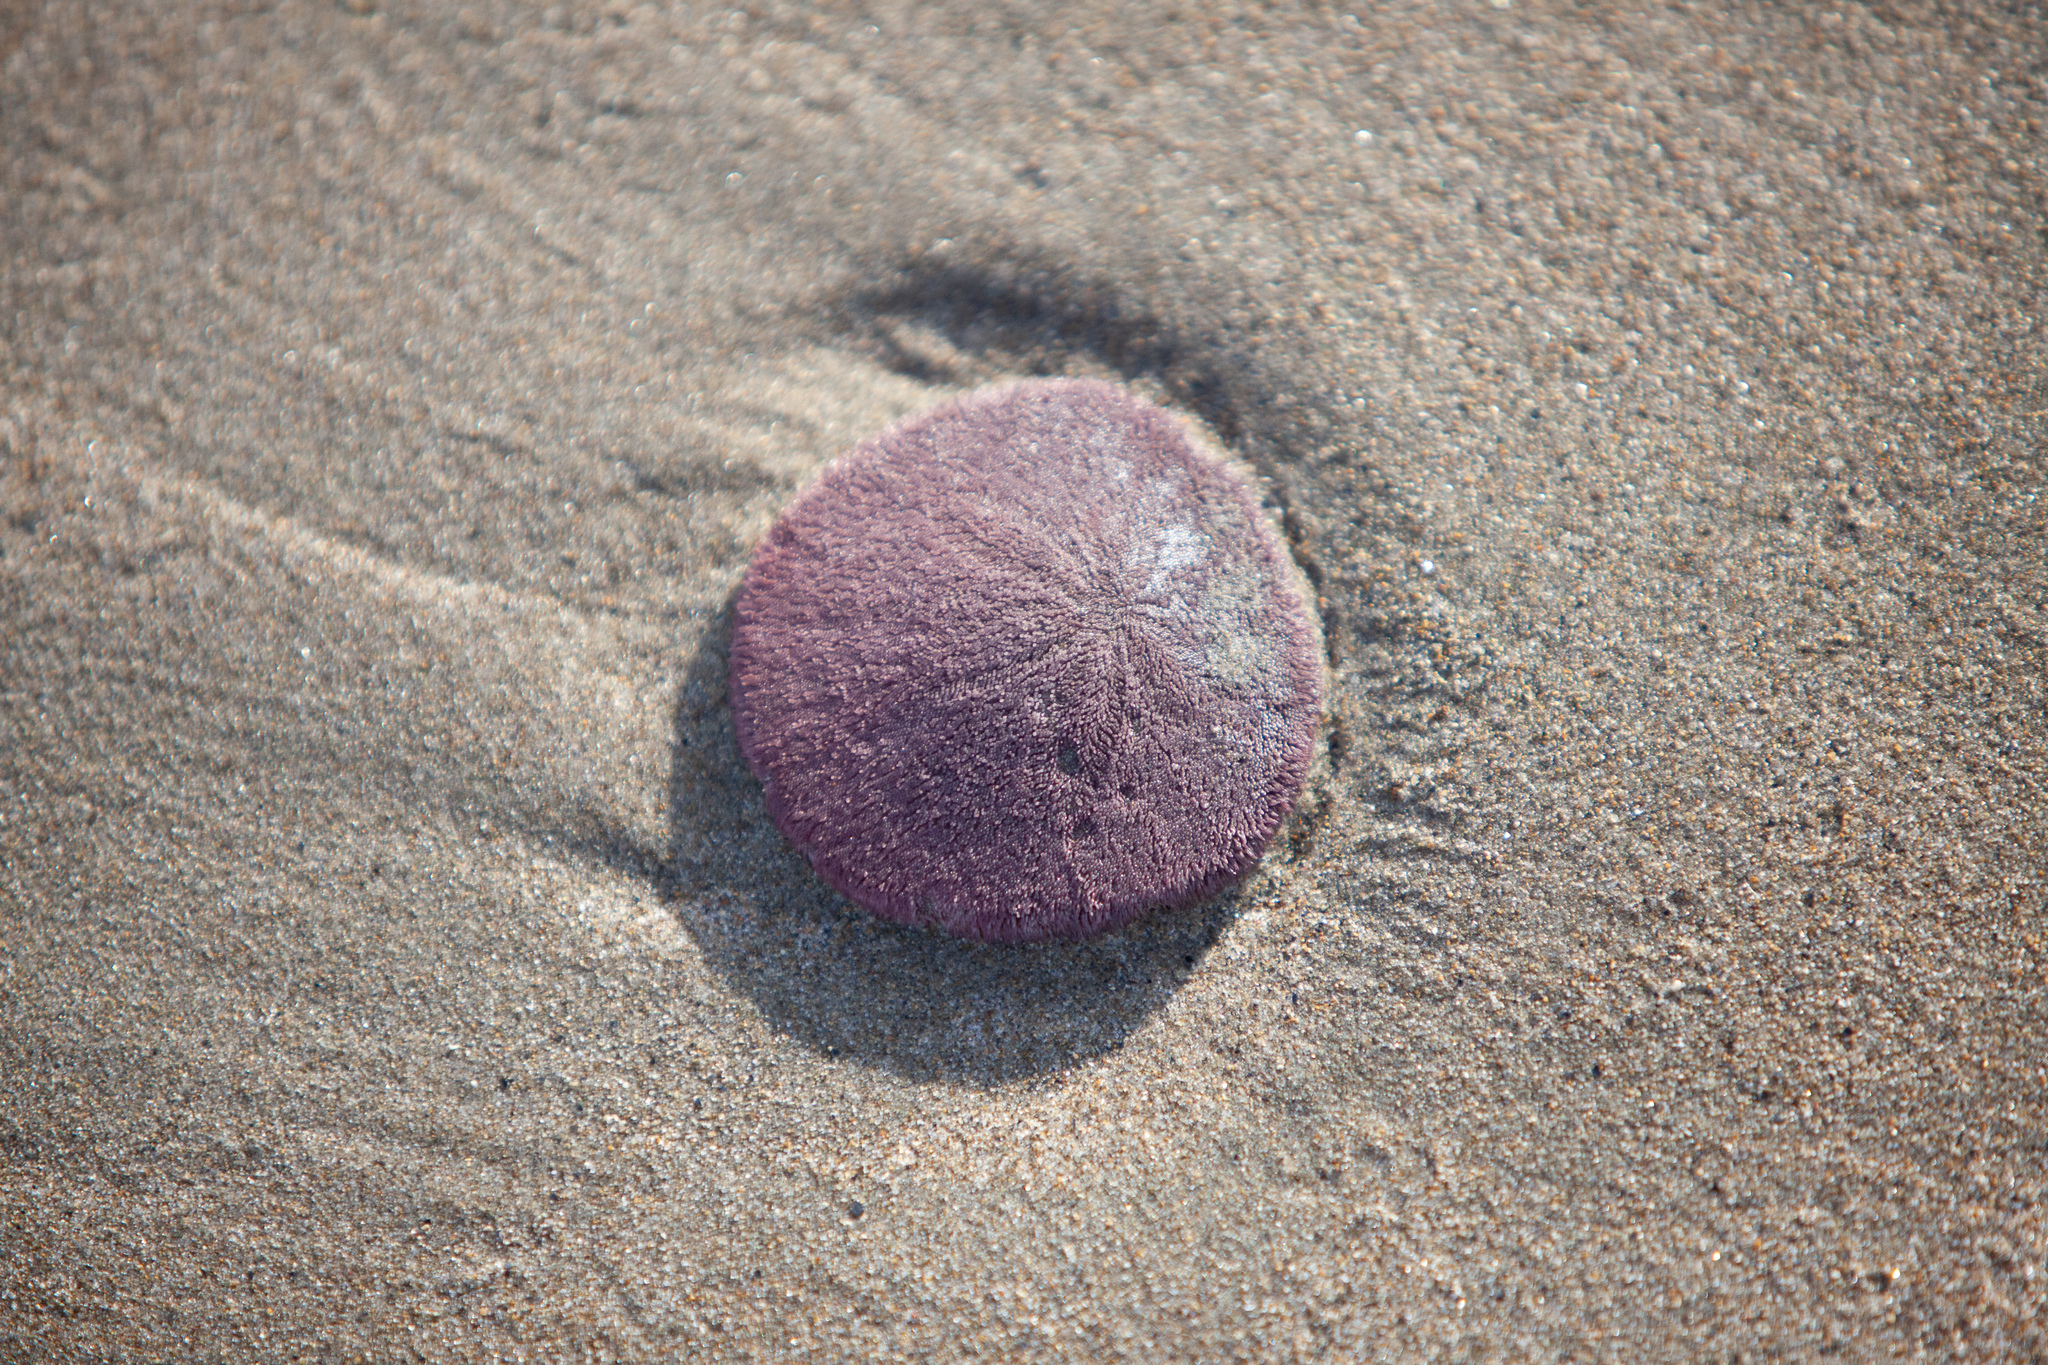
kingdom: Animalia
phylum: Echinodermata
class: Echinoidea
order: Echinolampadacea
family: Dendrasteridae
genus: Dendraster
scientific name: Dendraster excentricus
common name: Eccentric sand dollar sea urchin
